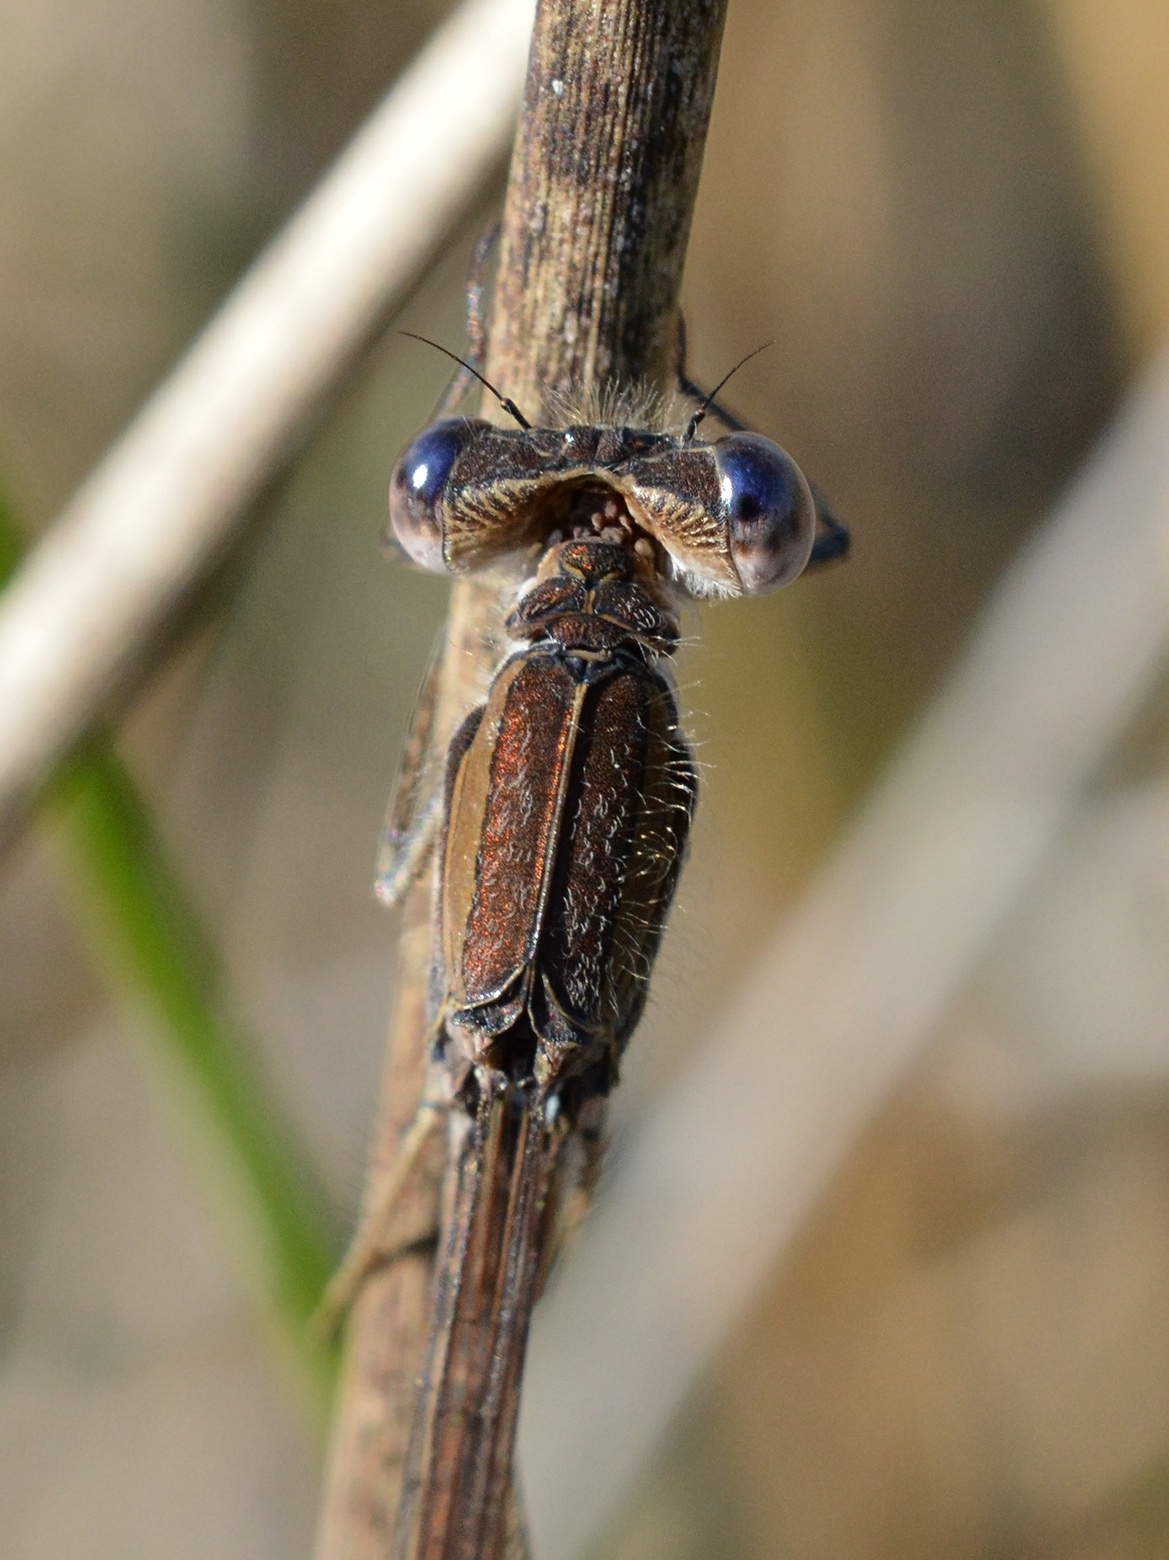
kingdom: Animalia
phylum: Arthropoda
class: Insecta
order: Odonata
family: Lestidae
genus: Sympecma
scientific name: Sympecma fusca
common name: Common winter damsel
